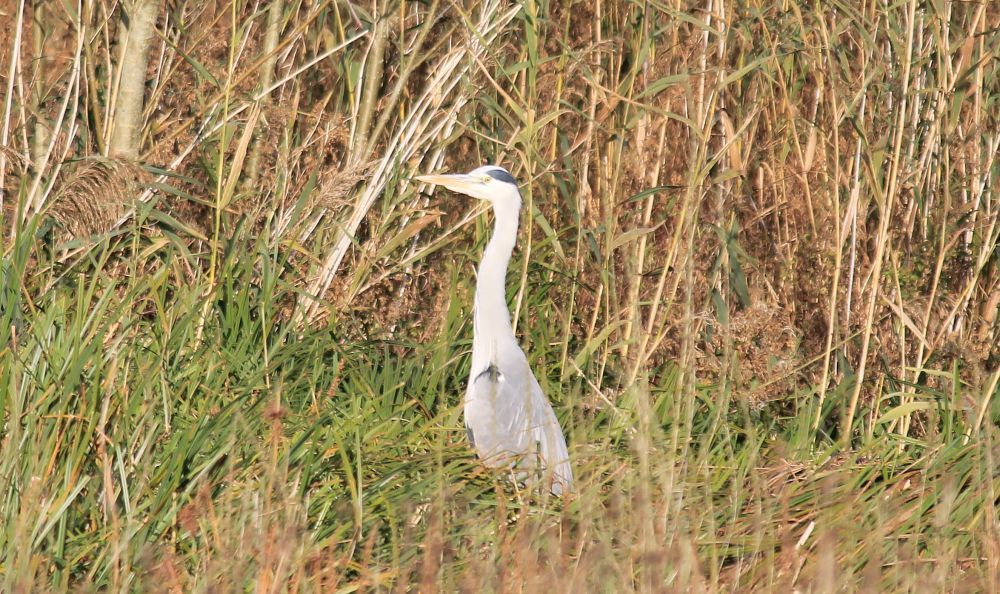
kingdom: Animalia
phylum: Chordata
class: Aves
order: Pelecaniformes
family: Ardeidae
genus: Ardea
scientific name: Ardea cinerea
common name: Grey heron
